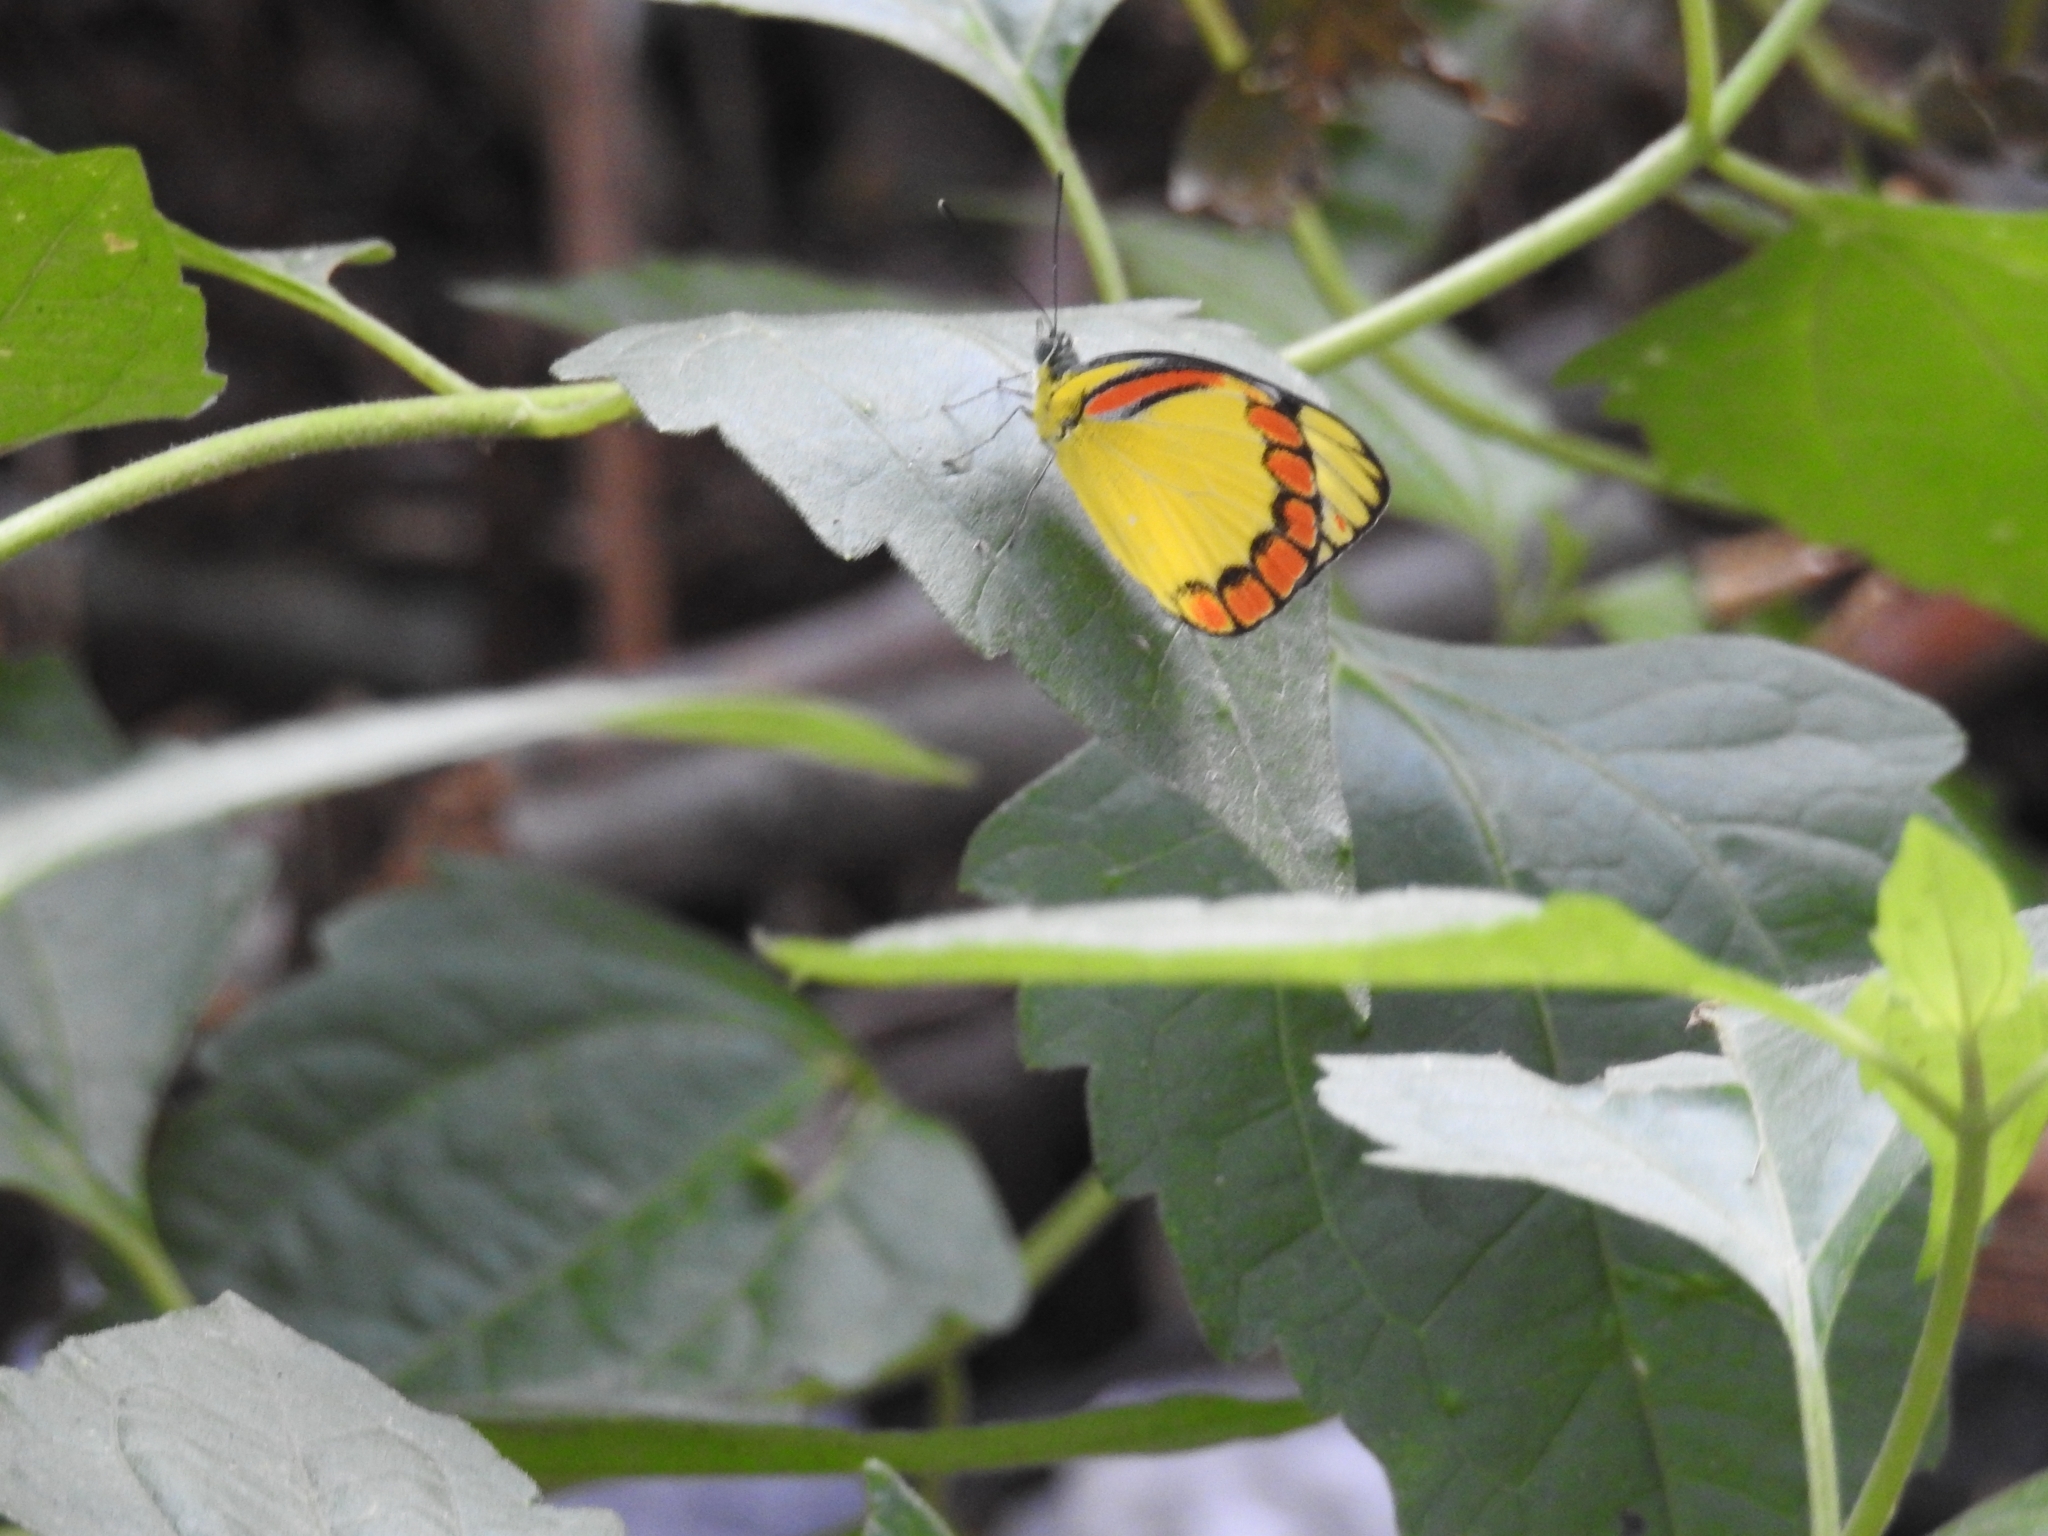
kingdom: Animalia
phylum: Arthropoda
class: Insecta
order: Lepidoptera
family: Pieridae
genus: Cepora
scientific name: Cepora laeta
